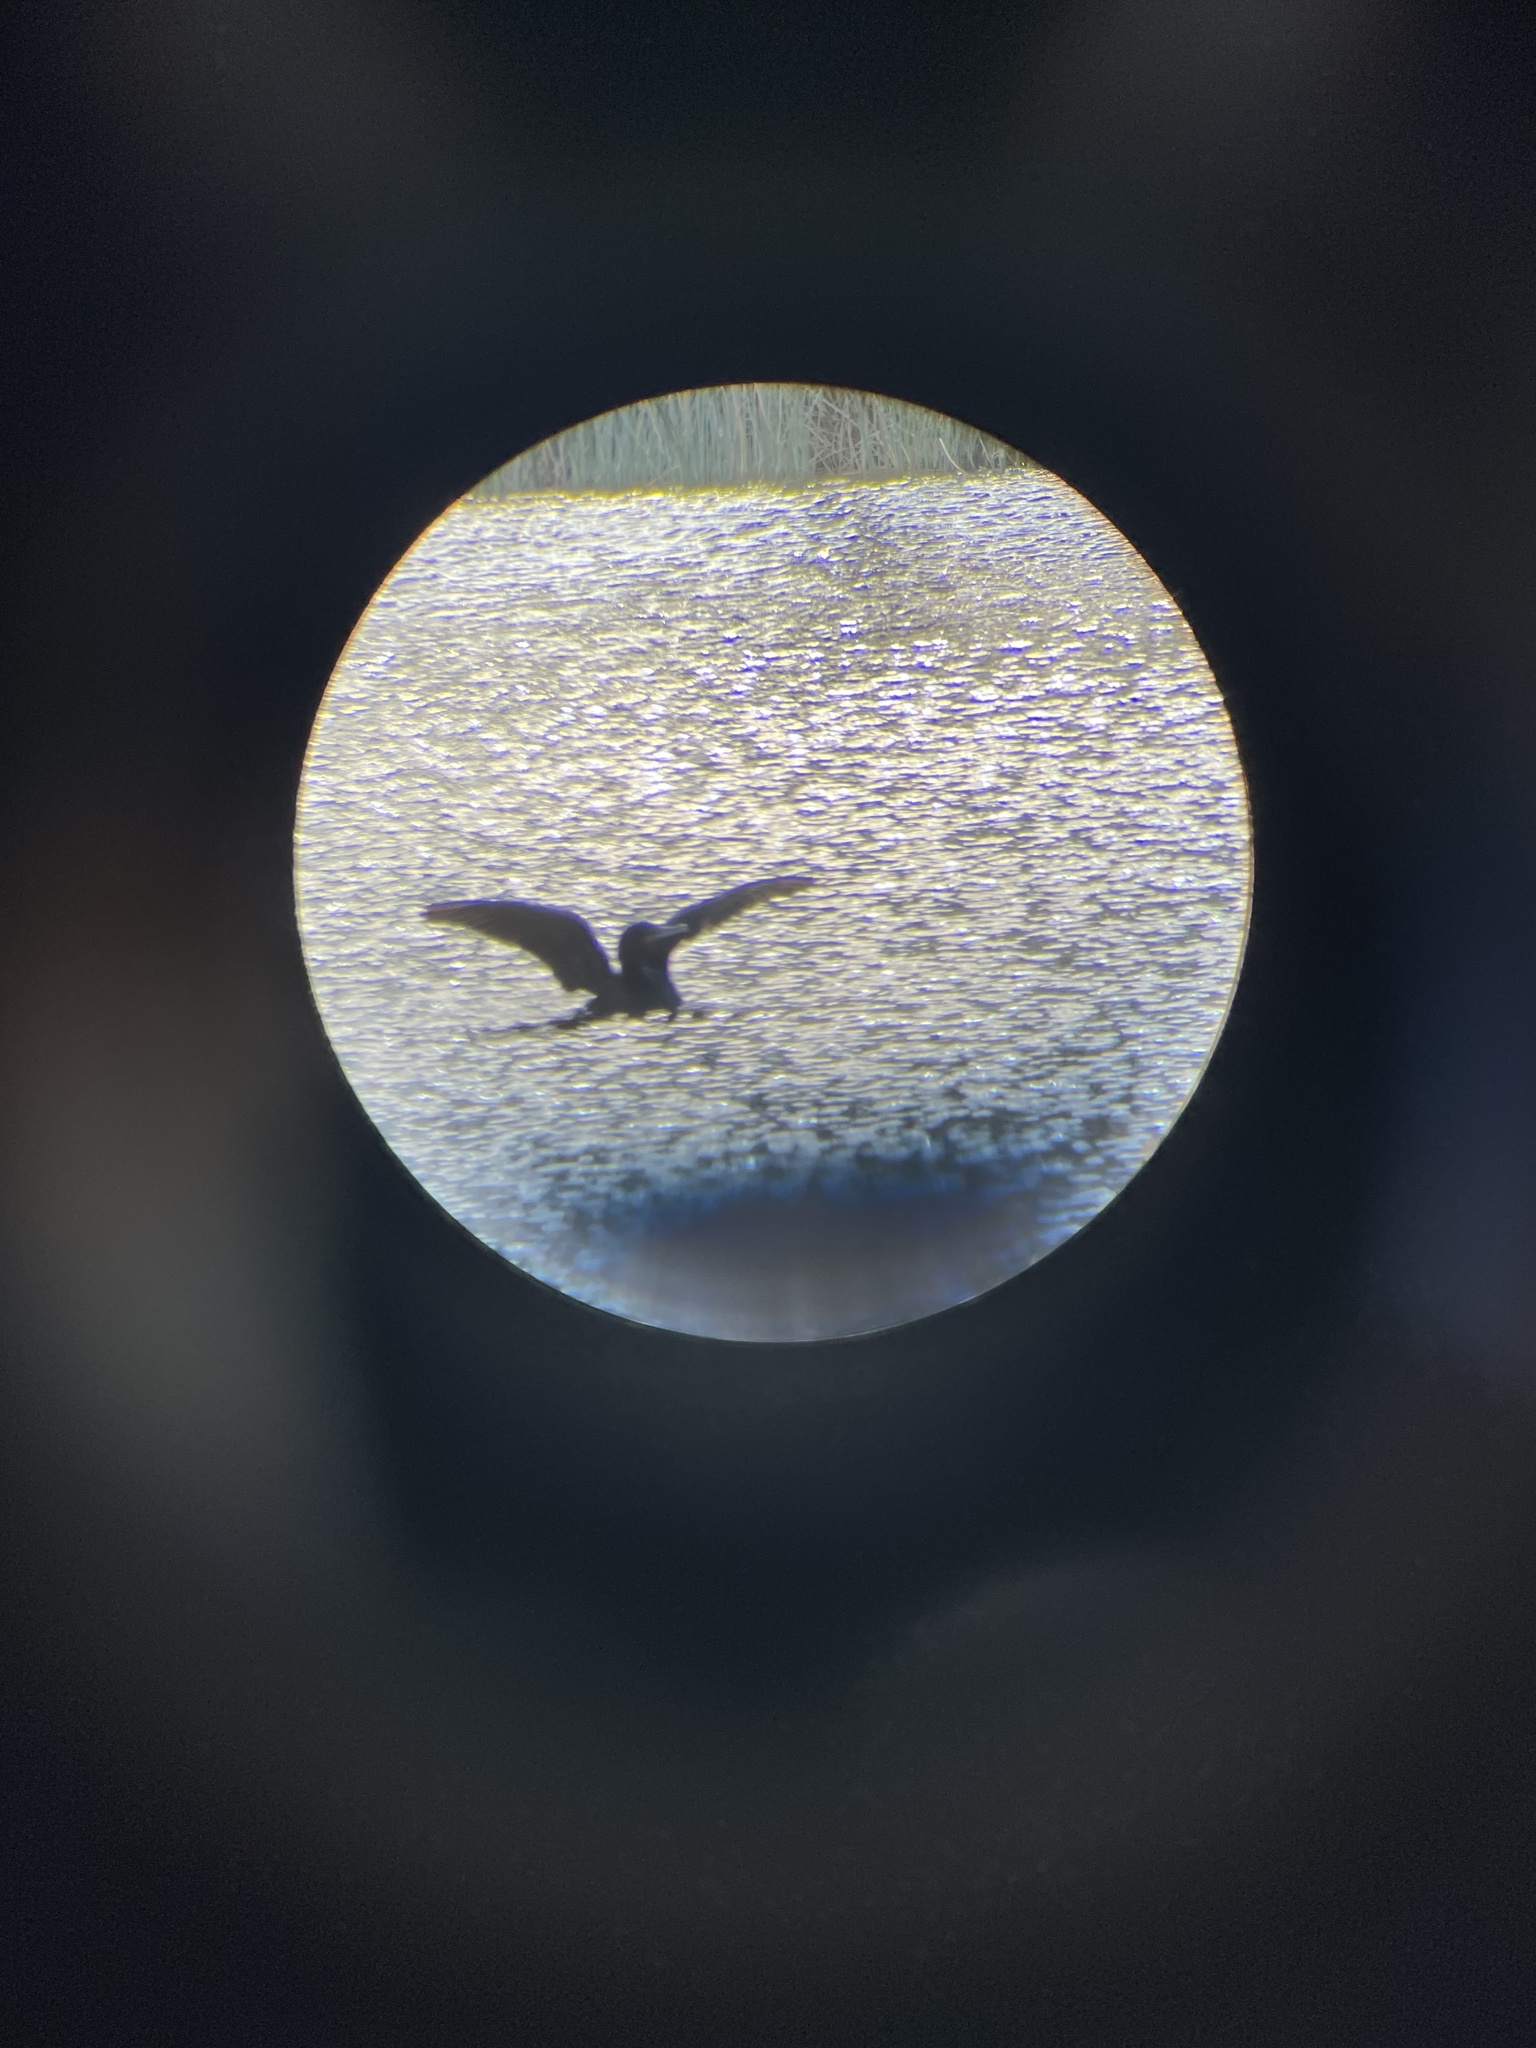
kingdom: Animalia
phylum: Chordata
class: Aves
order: Suliformes
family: Phalacrocoracidae
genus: Phalacrocorax
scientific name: Phalacrocorax auritus
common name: Double-crested cormorant
